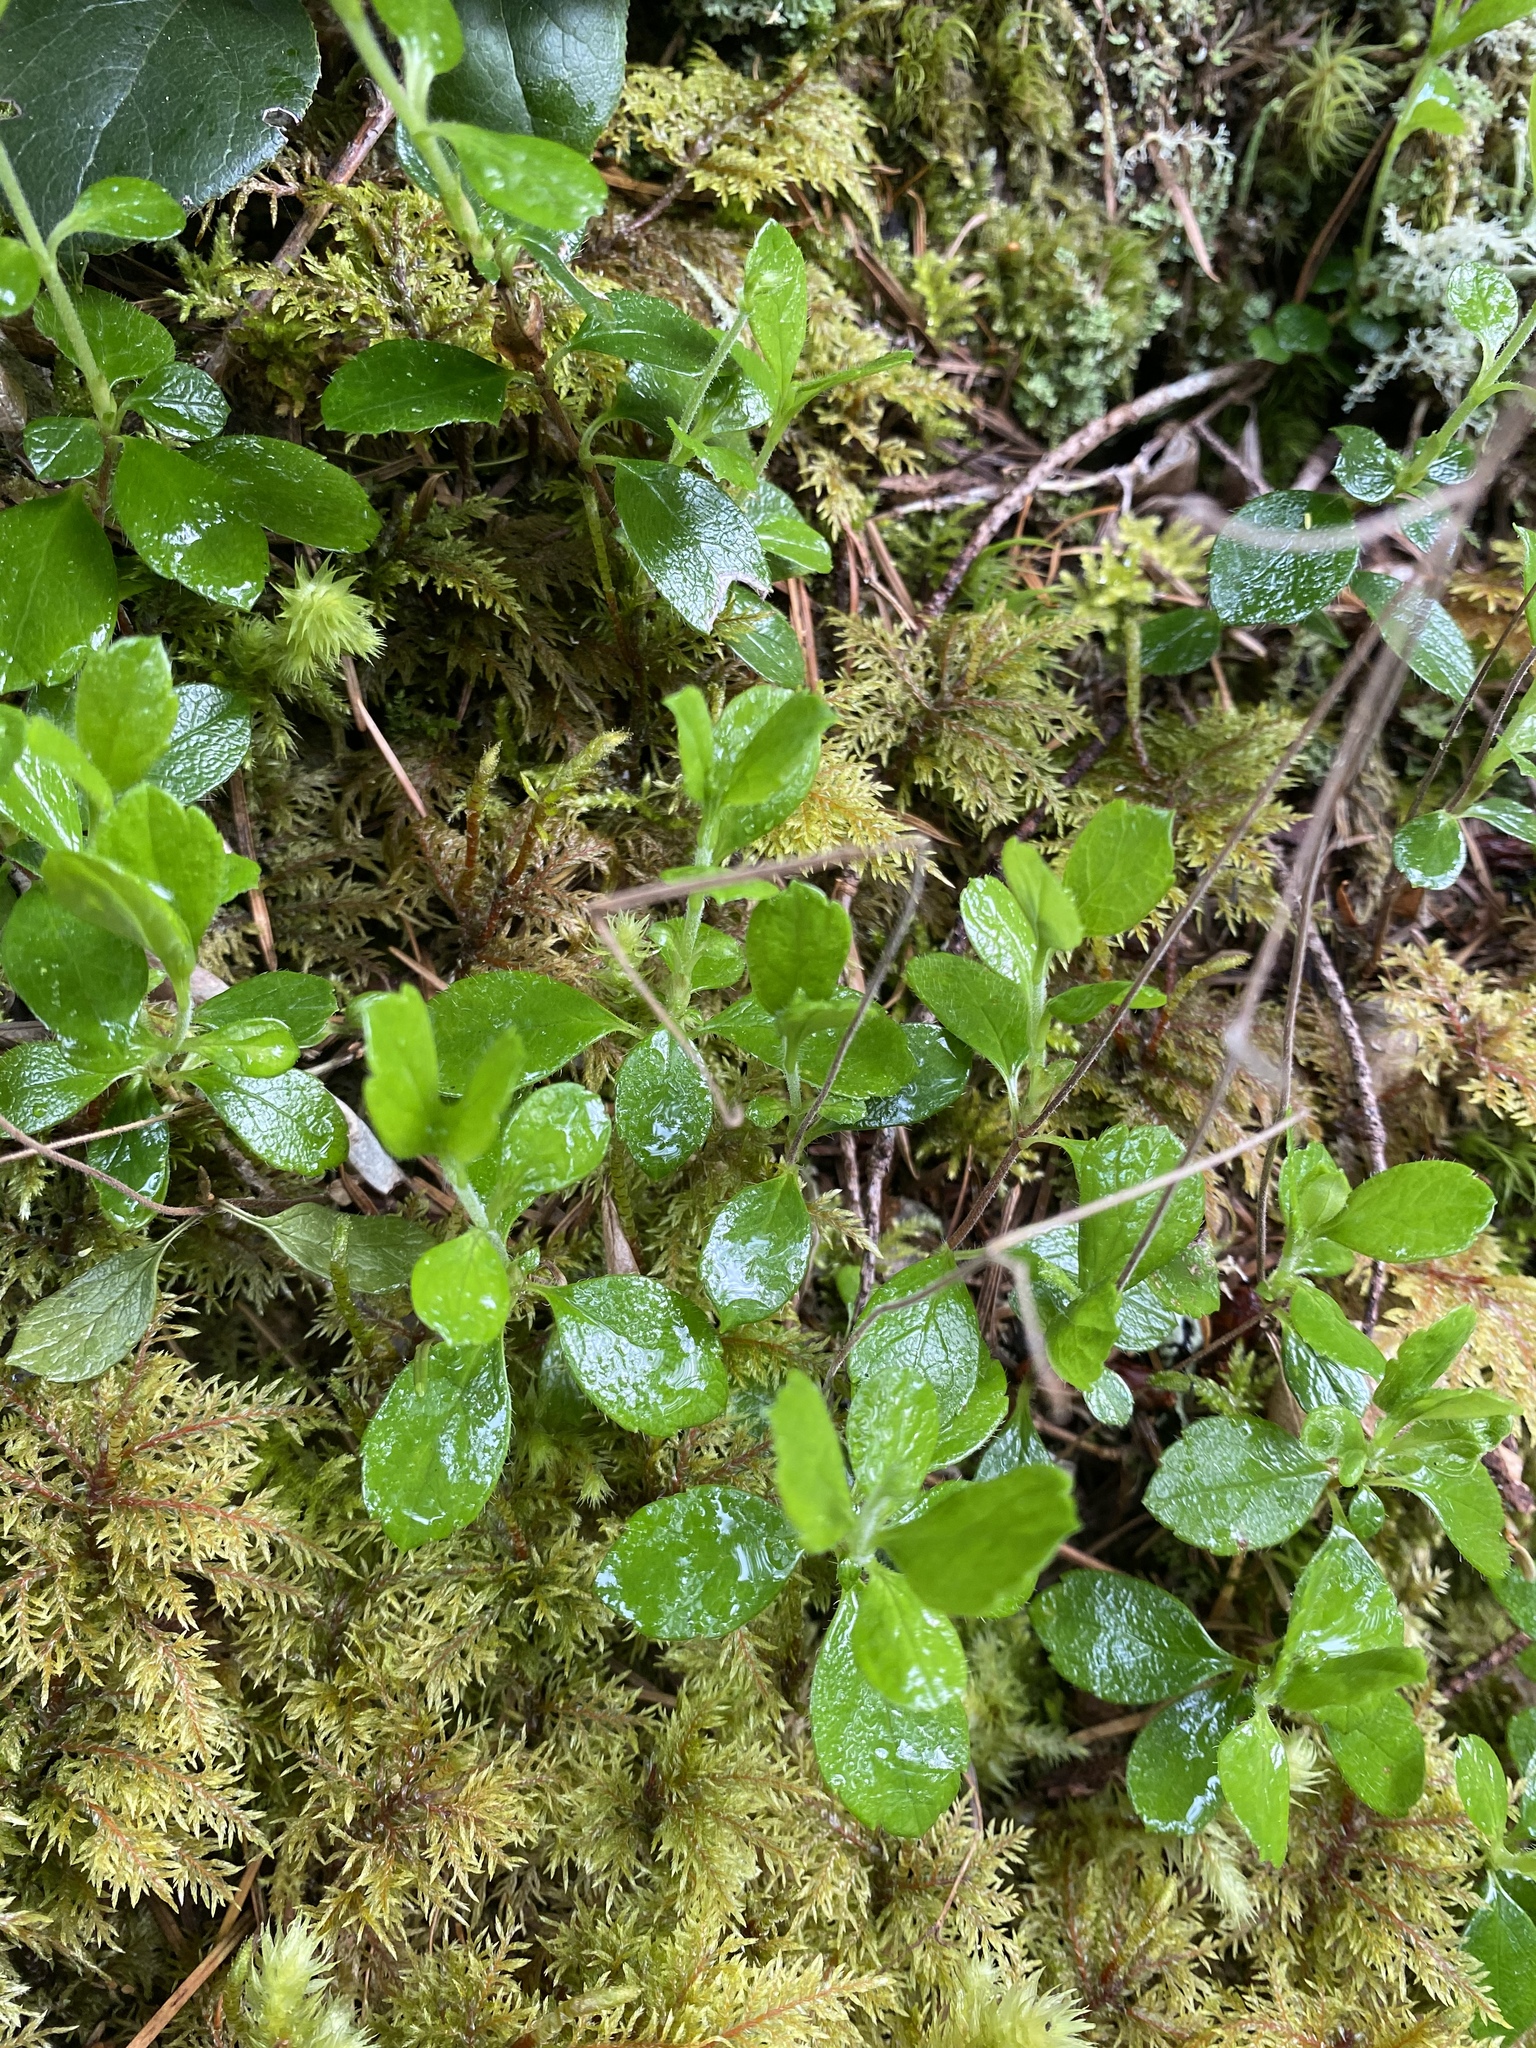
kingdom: Plantae
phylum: Tracheophyta
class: Magnoliopsida
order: Dipsacales
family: Caprifoliaceae
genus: Linnaea
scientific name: Linnaea borealis
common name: Twinflower
